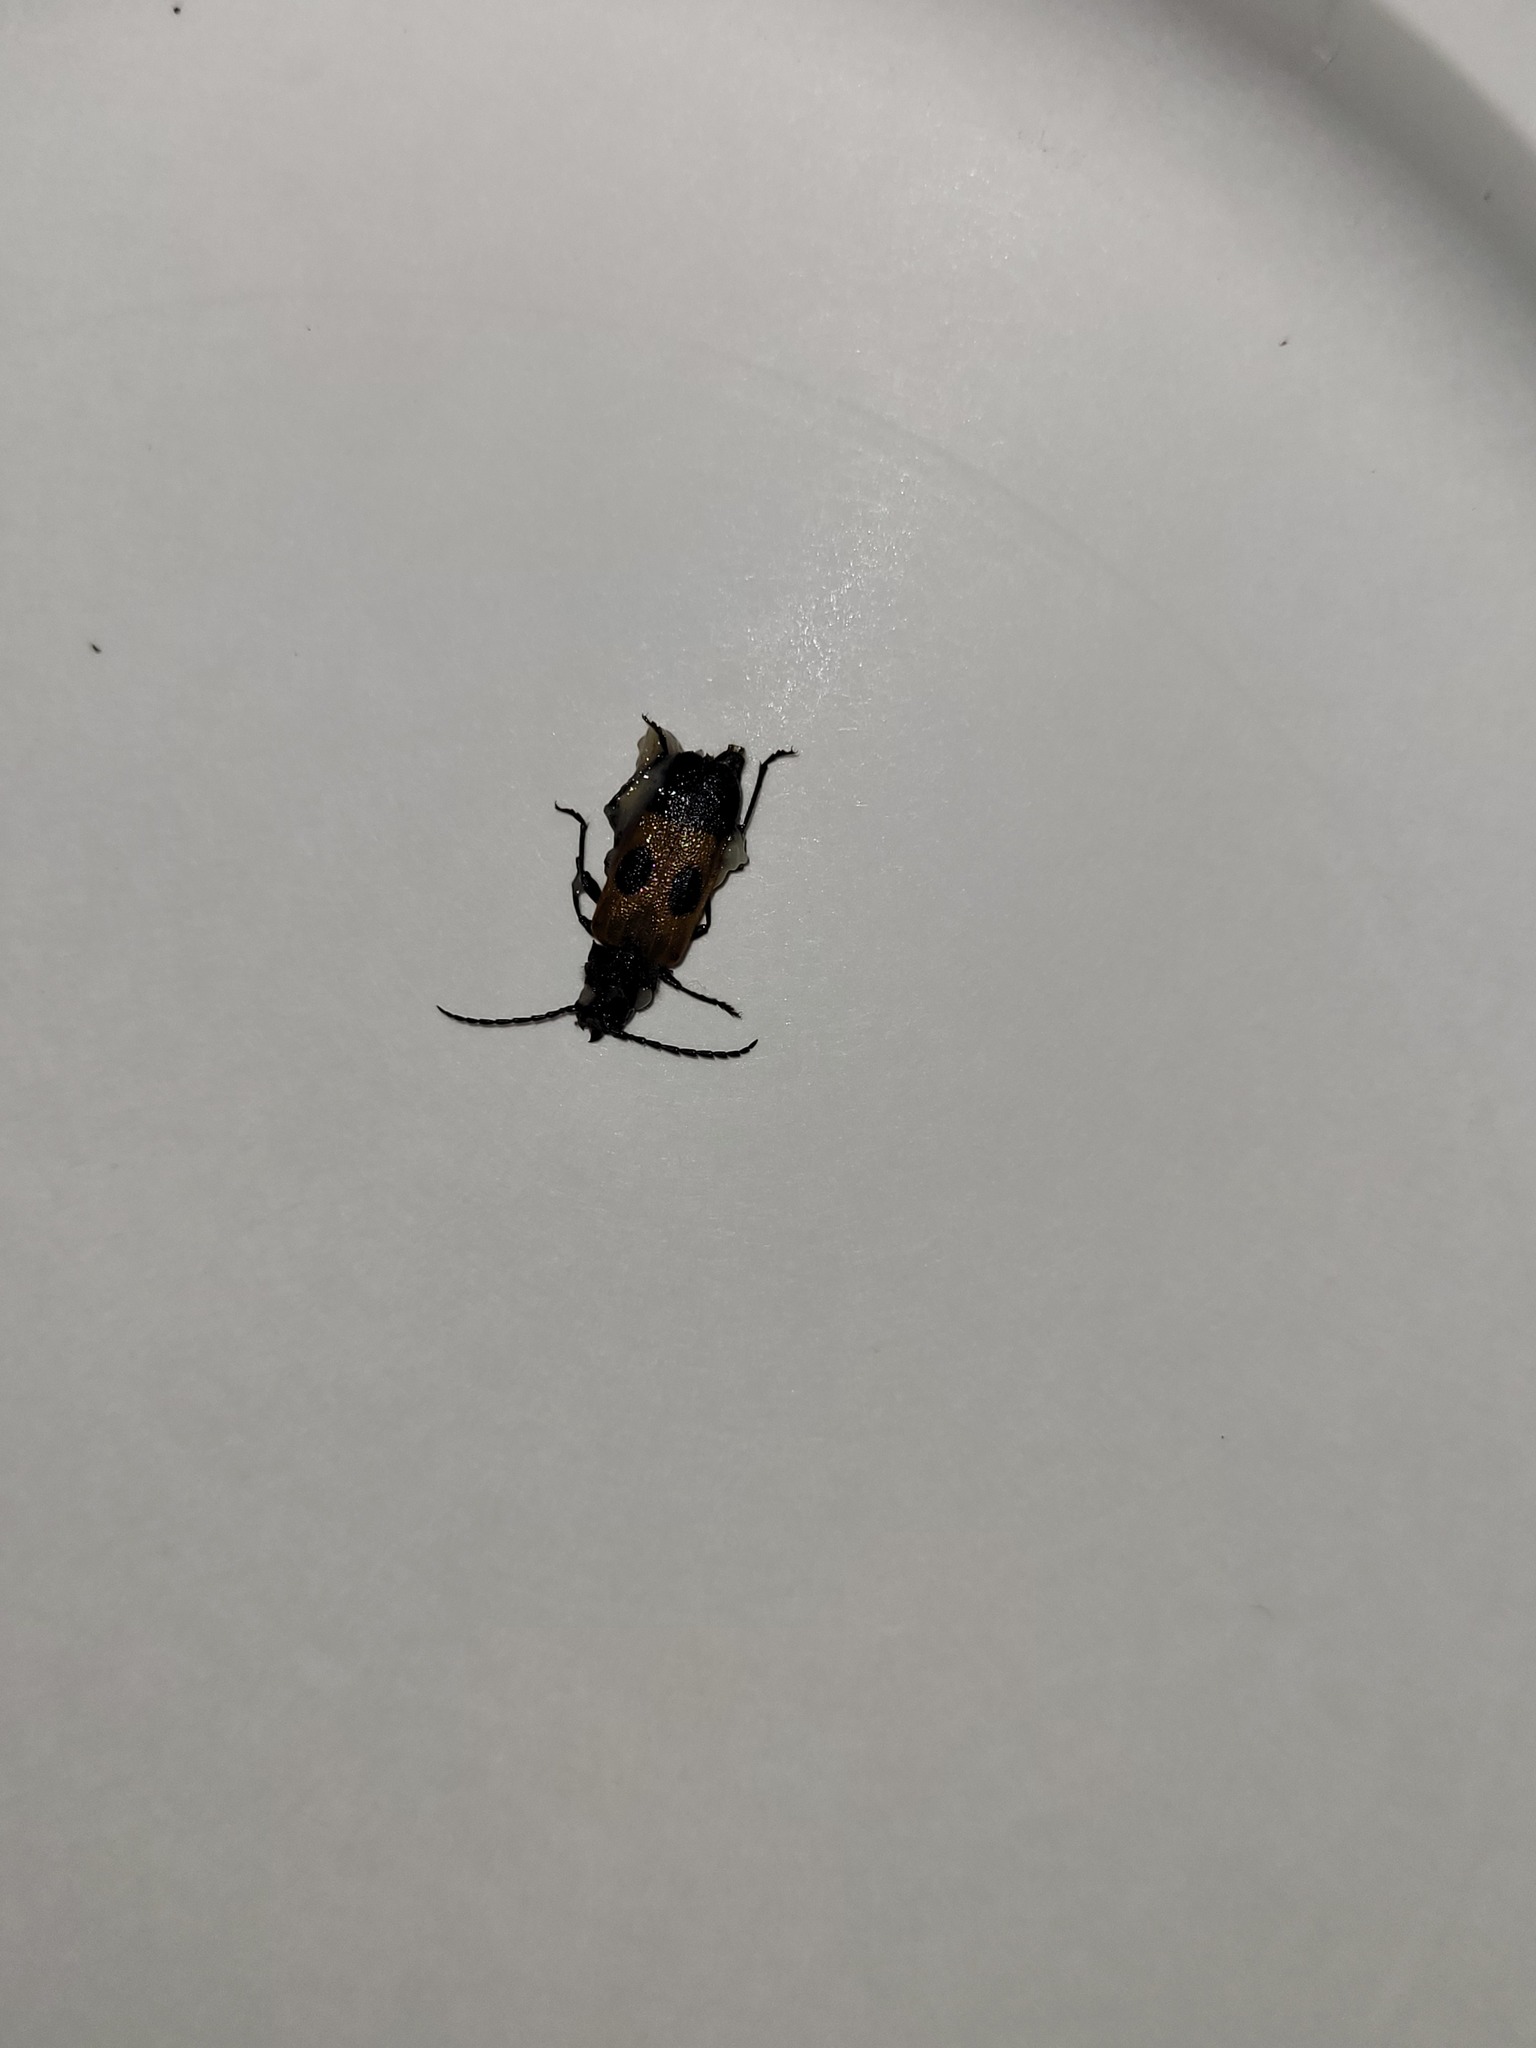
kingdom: Animalia
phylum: Arthropoda
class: Insecta
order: Coleoptera
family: Cerambycidae
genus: Semanotus
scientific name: Semanotus ligneus
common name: Cedartree borer
